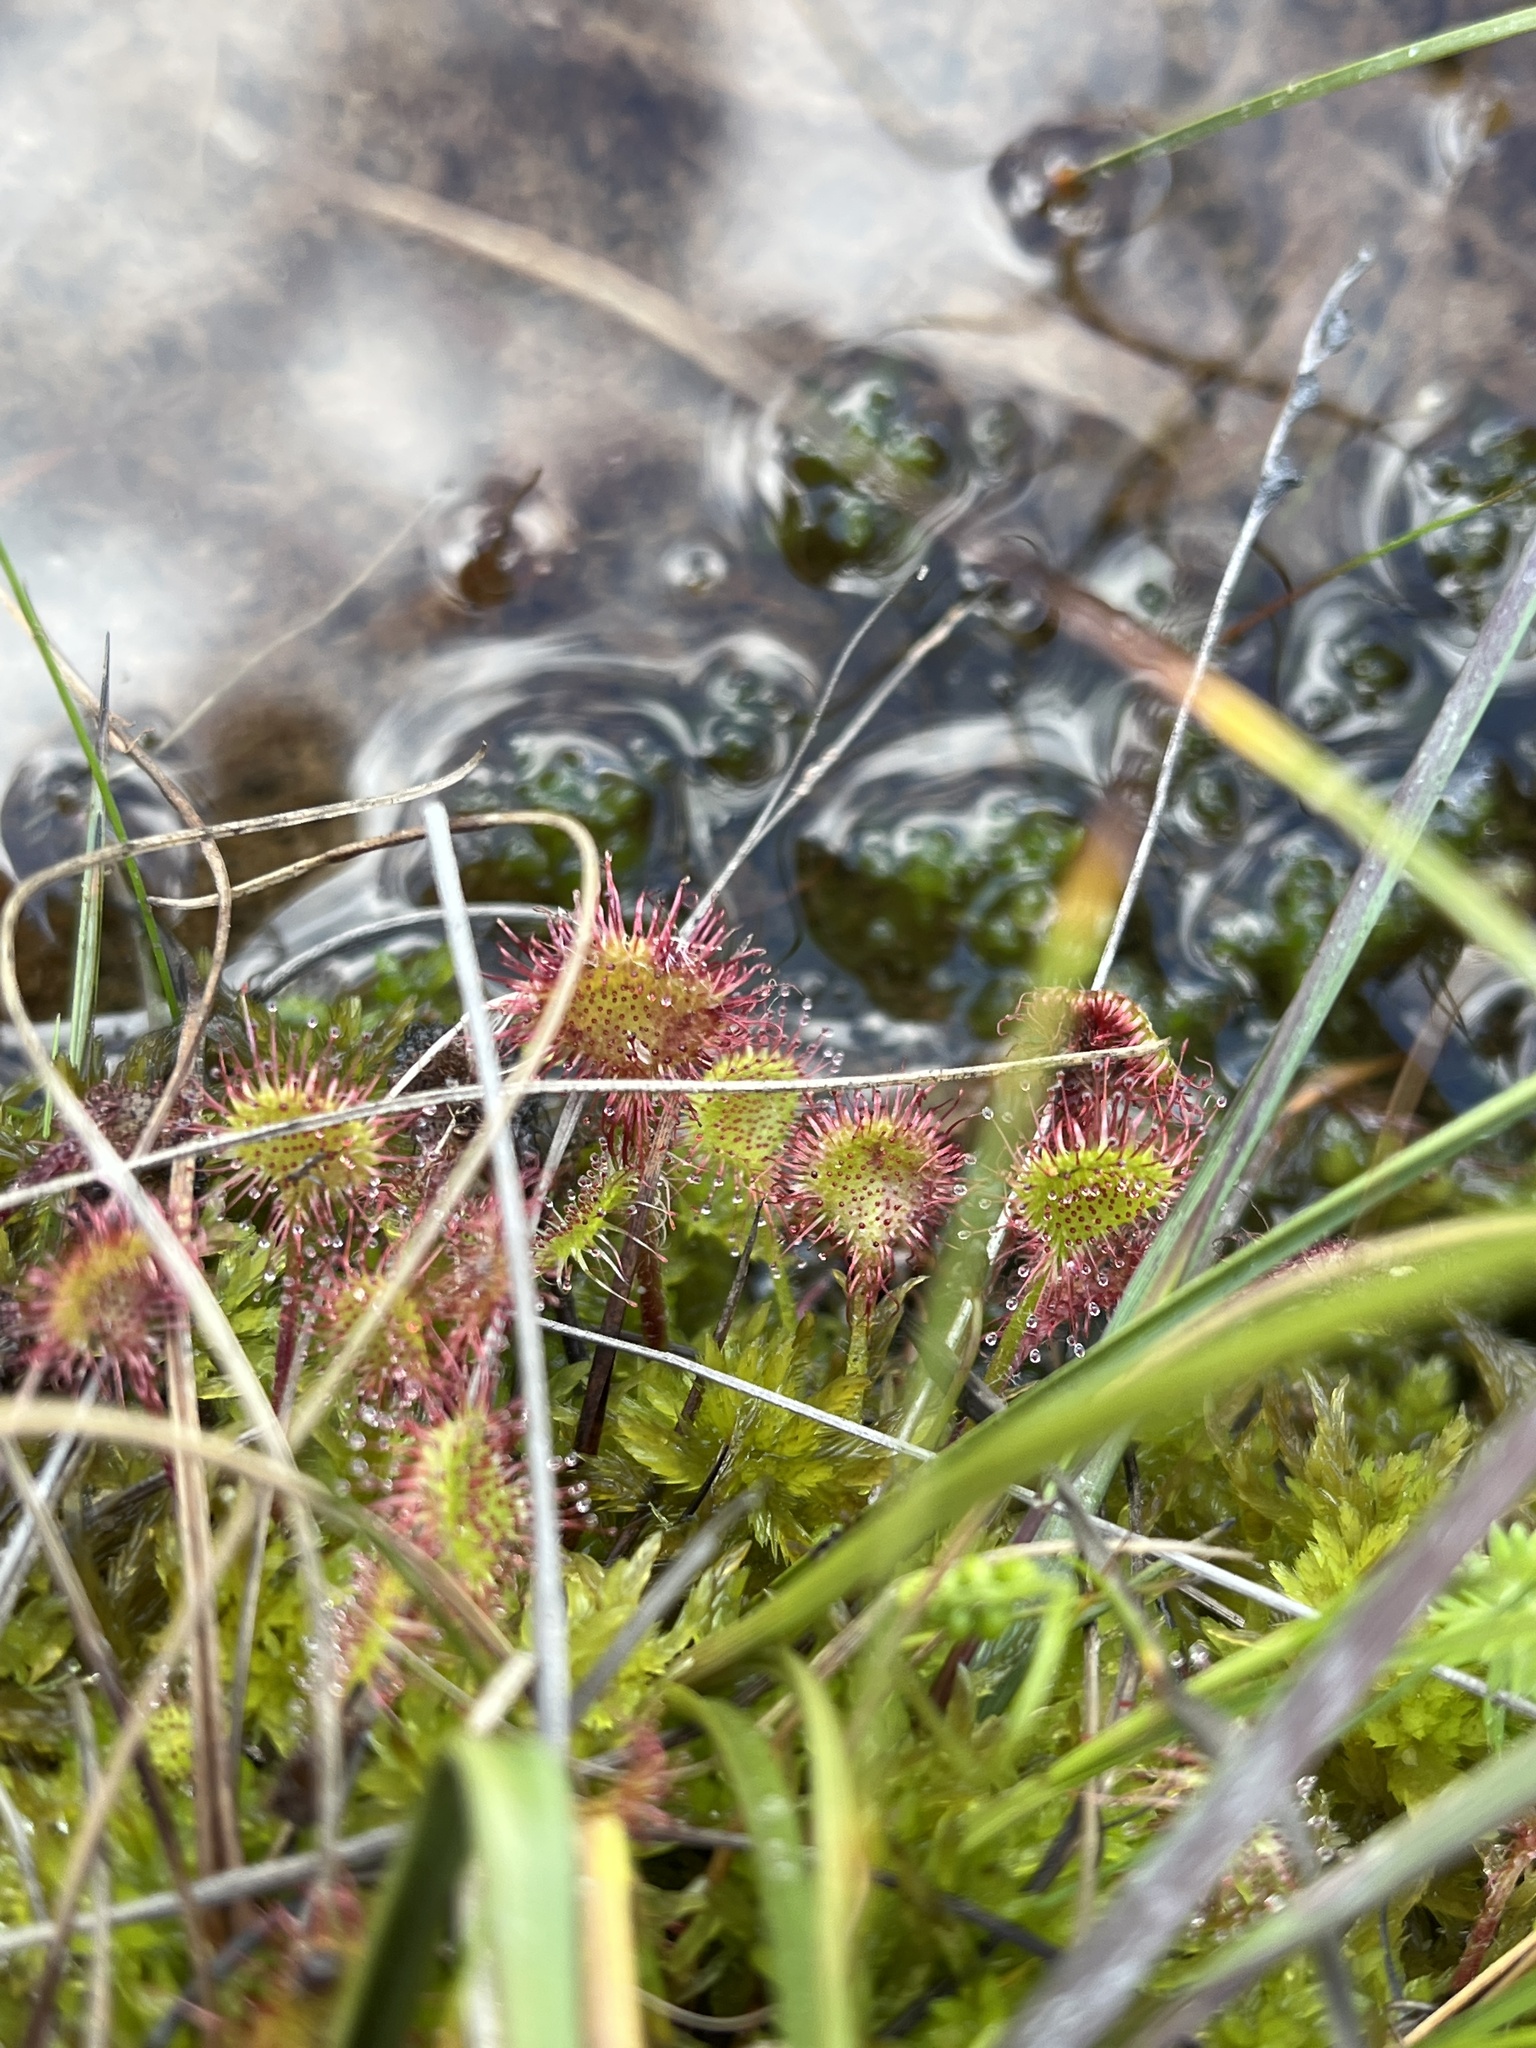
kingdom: Plantae
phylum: Tracheophyta
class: Magnoliopsida
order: Caryophyllales
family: Droseraceae
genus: Drosera
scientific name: Drosera rotundifolia
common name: Round-leaved sundew
